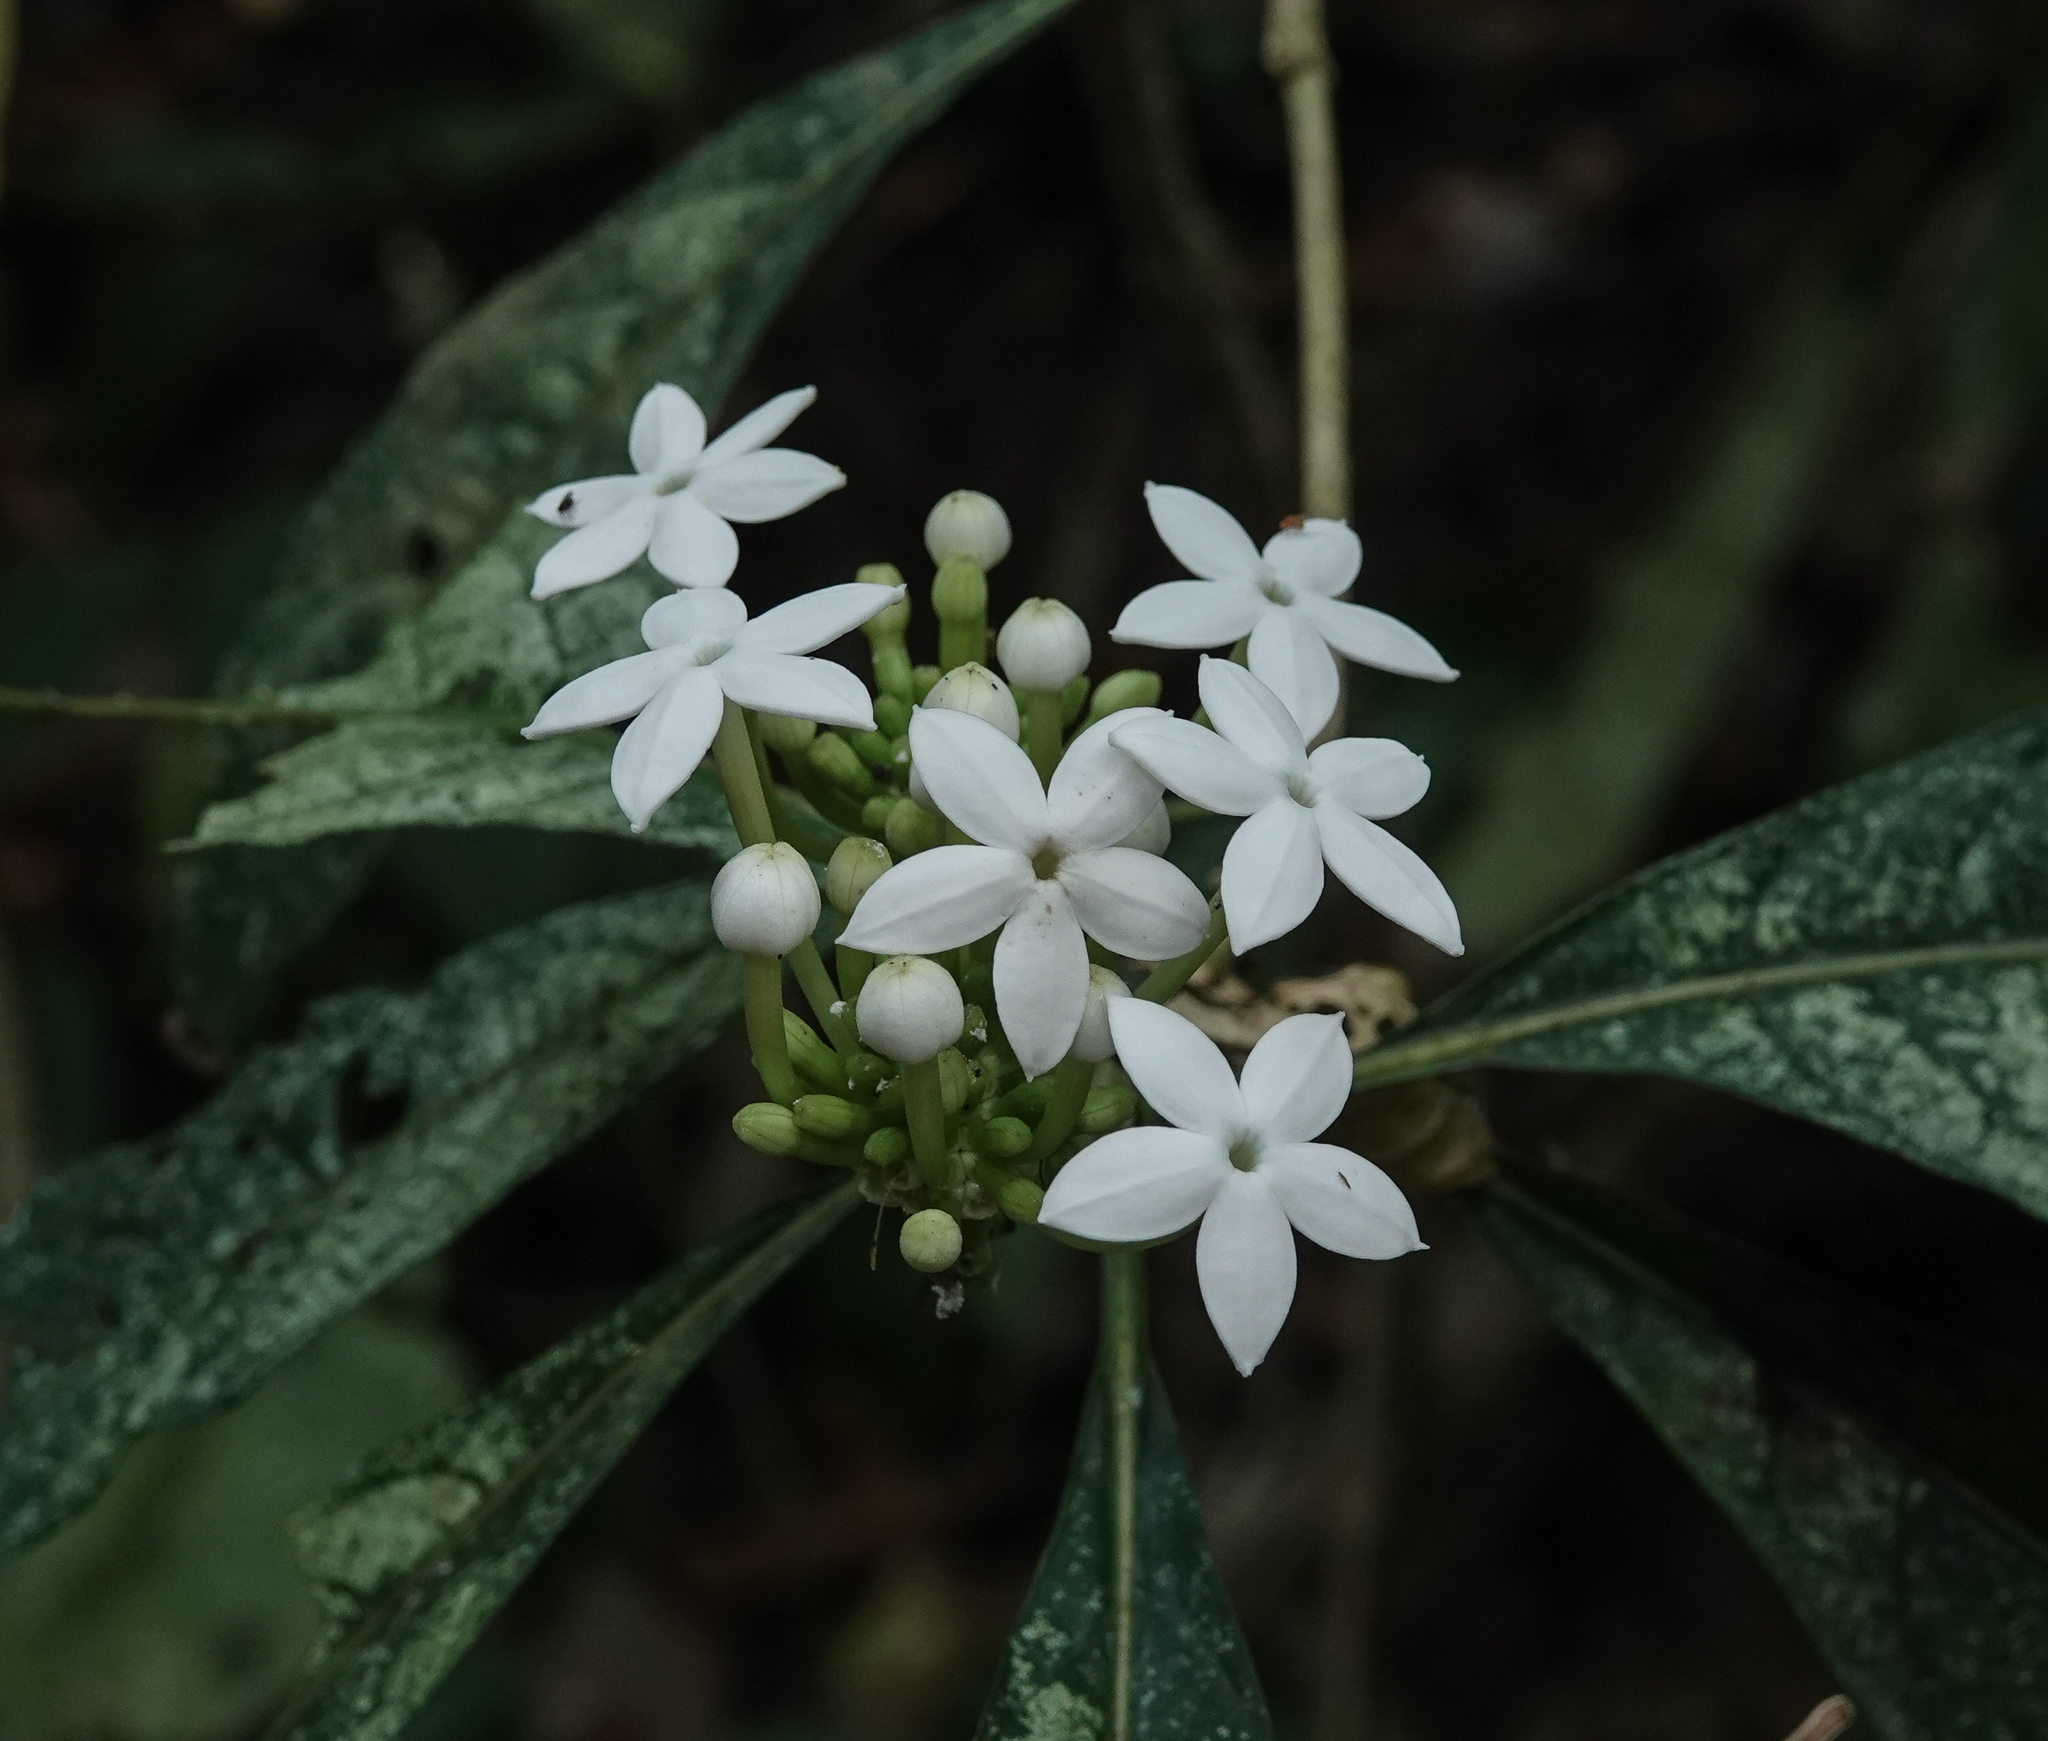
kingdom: Plantae
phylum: Tracheophyta
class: Magnoliopsida
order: Gentianales
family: Rubiaceae
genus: Morinda
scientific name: Morinda angustifolia
